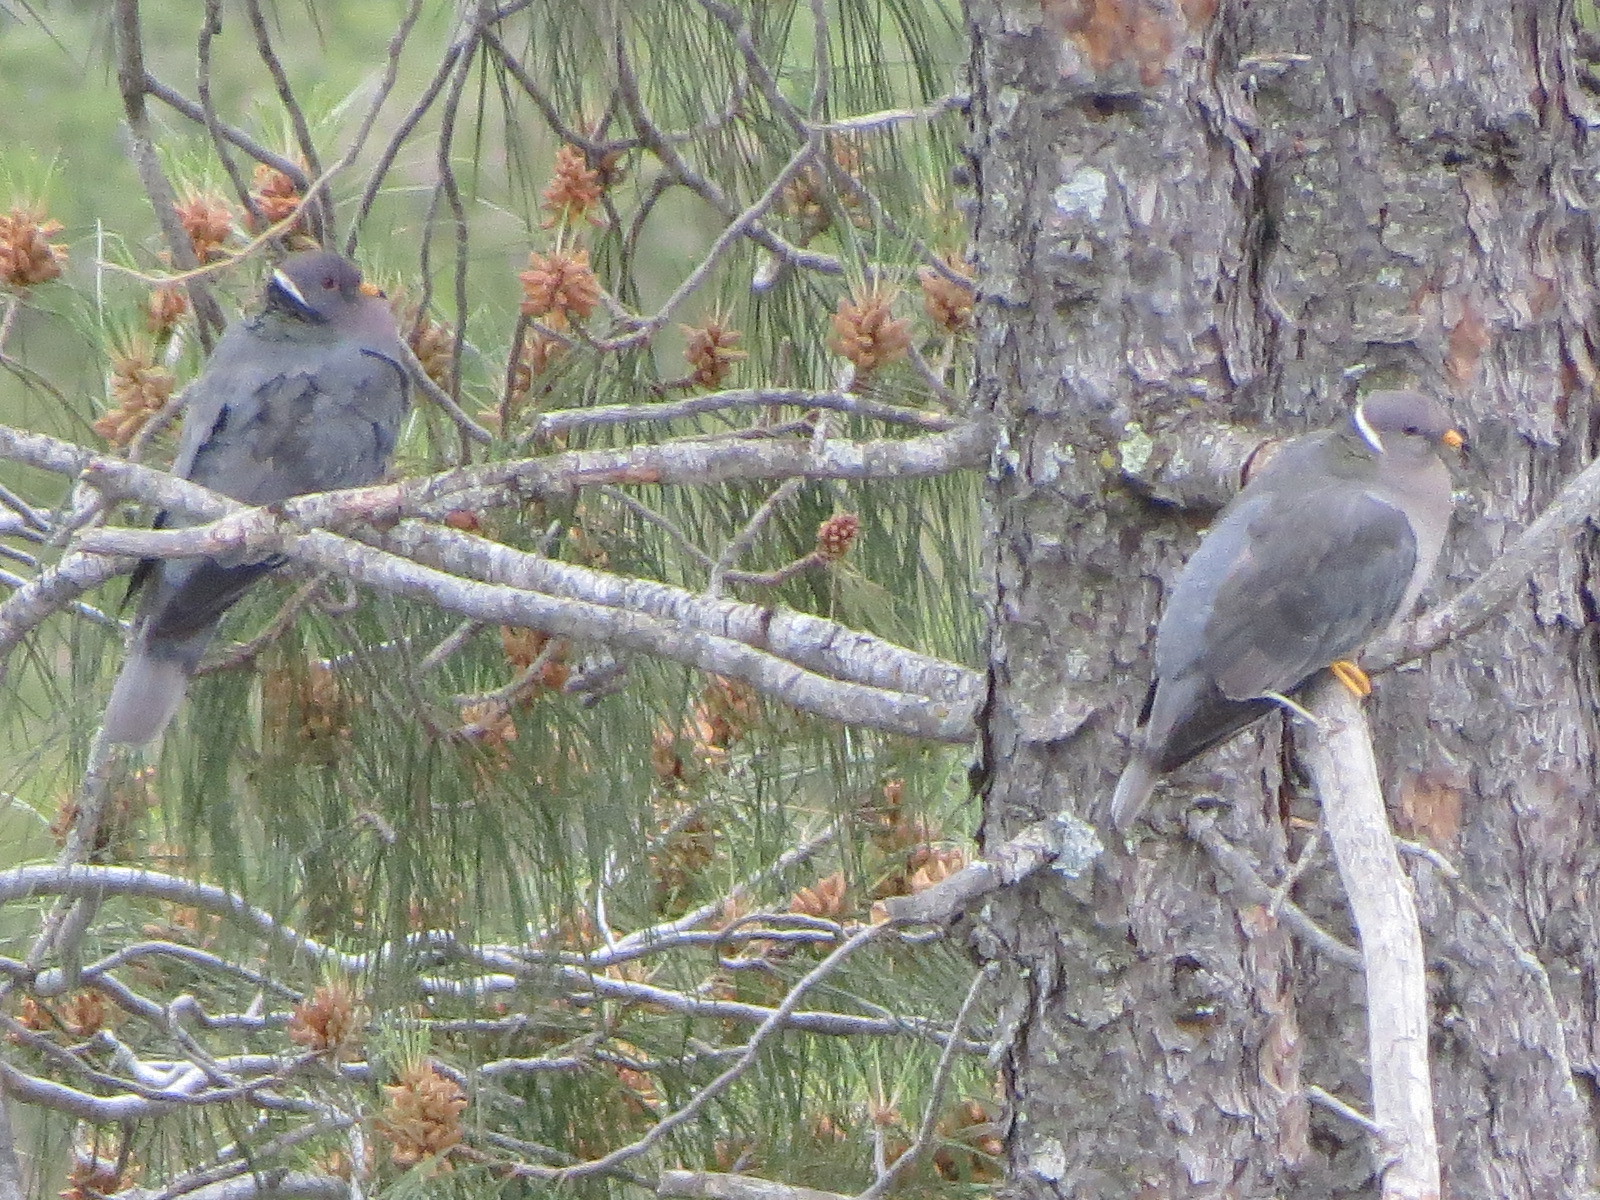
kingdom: Animalia
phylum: Chordata
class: Aves
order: Columbiformes
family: Columbidae
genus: Patagioenas
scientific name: Patagioenas fasciata
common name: Band-tailed pigeon
